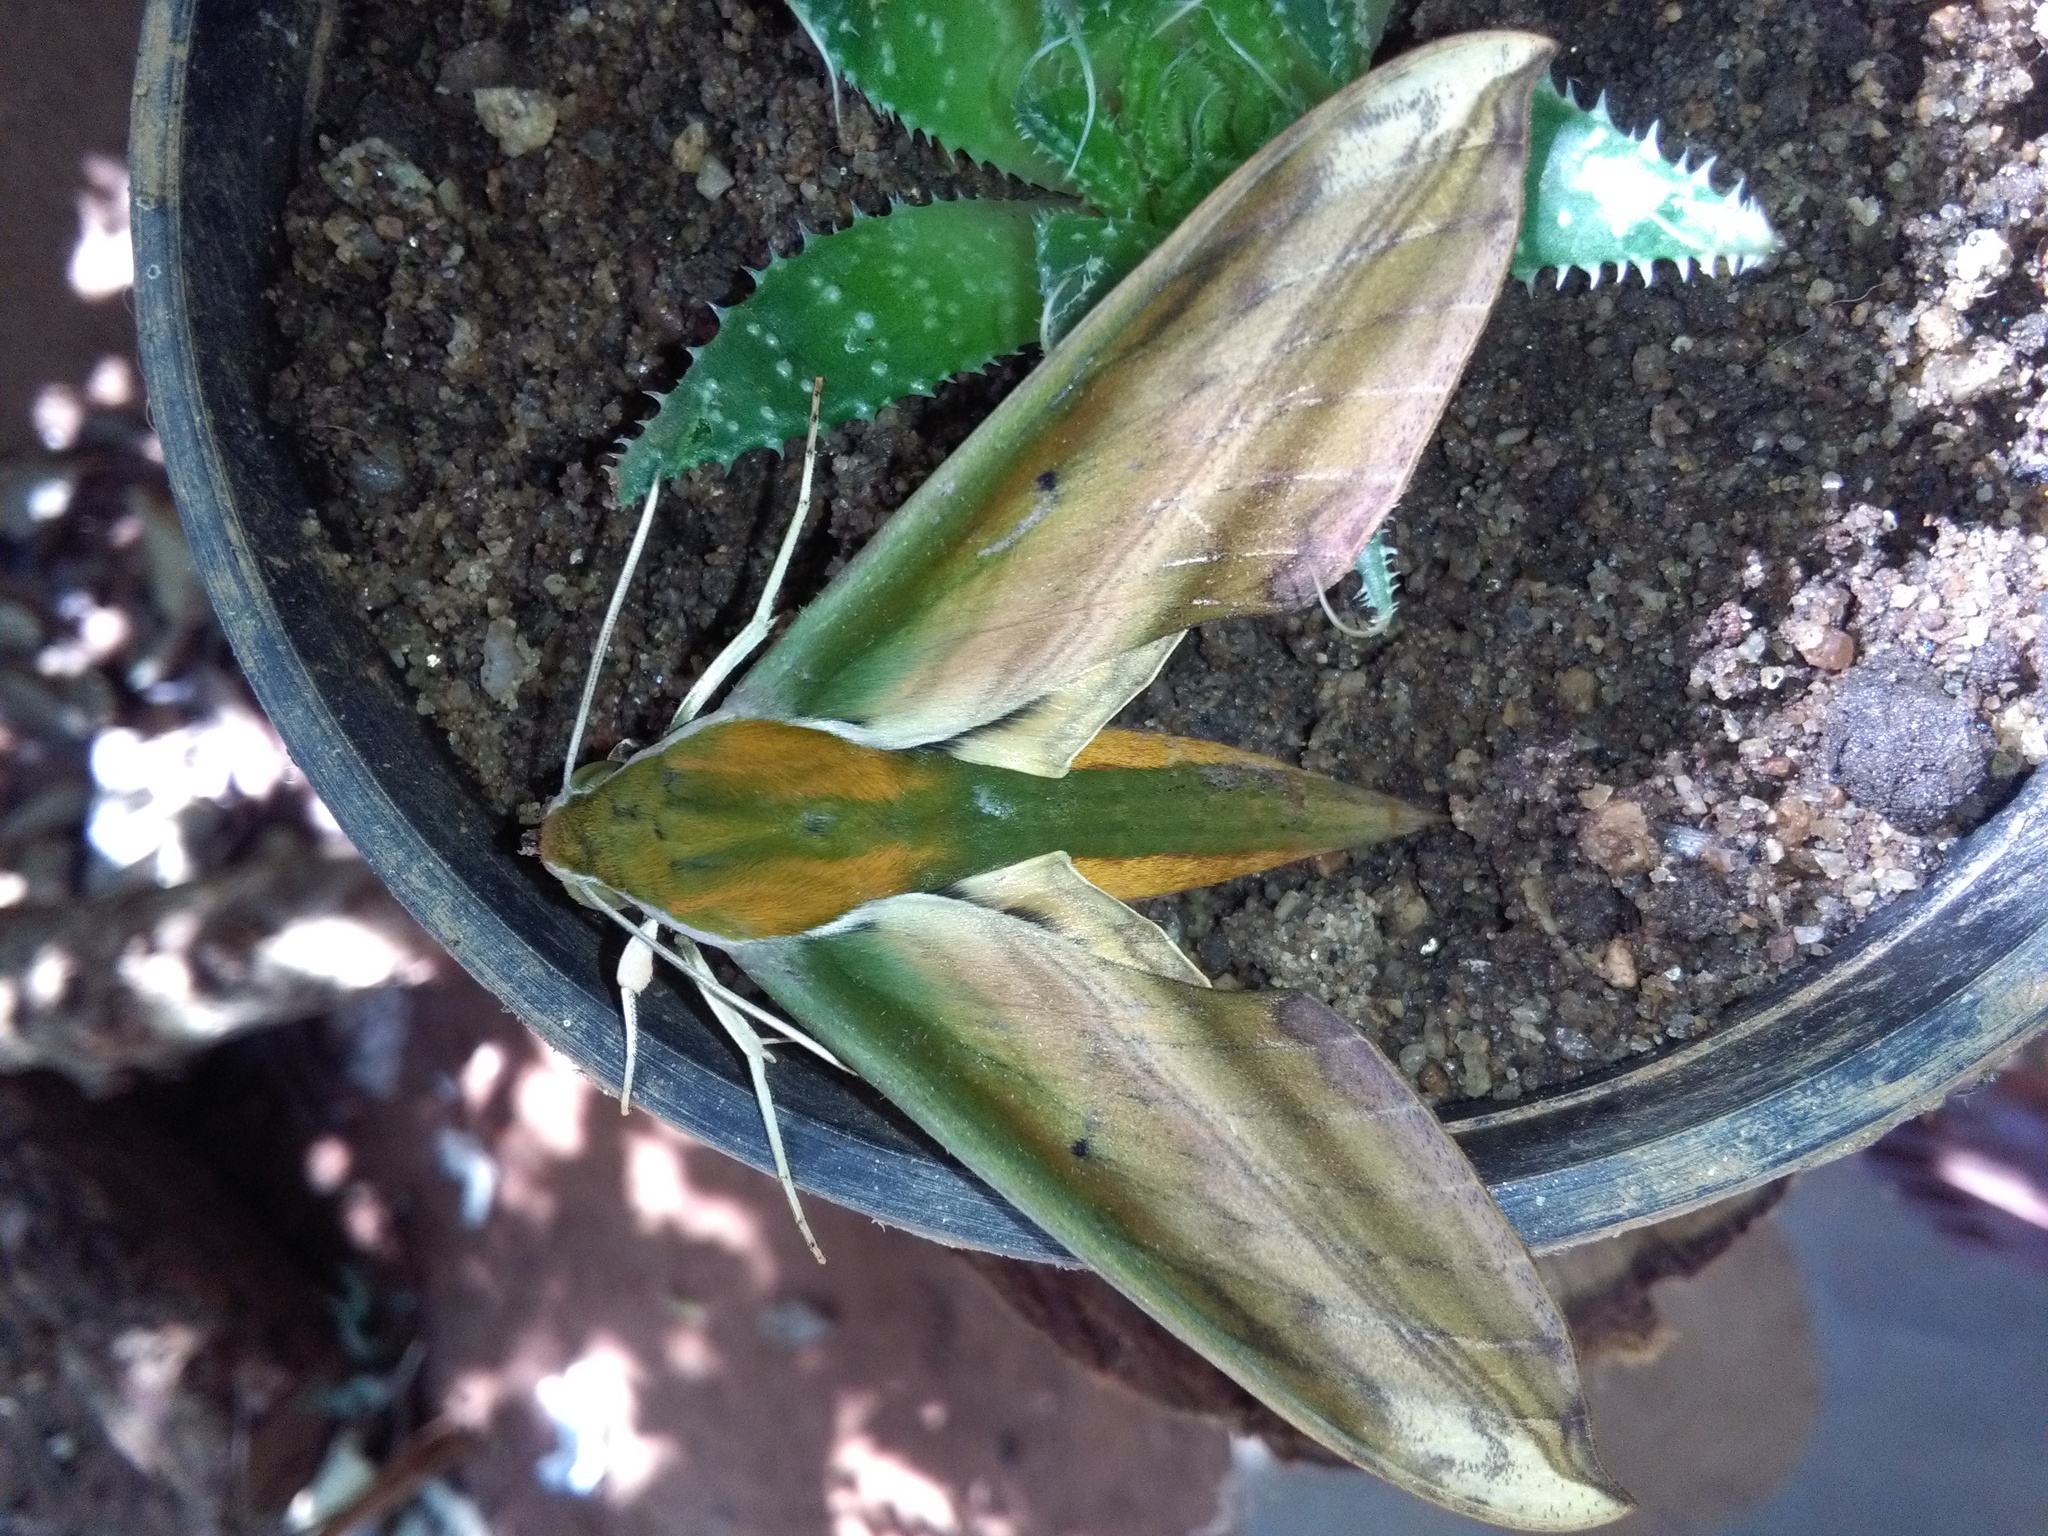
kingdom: Animalia
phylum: Arthropoda
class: Insecta
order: Lepidoptera
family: Sphingidae
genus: Theretra
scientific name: Theretra nessus
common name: Yam hawk moth
